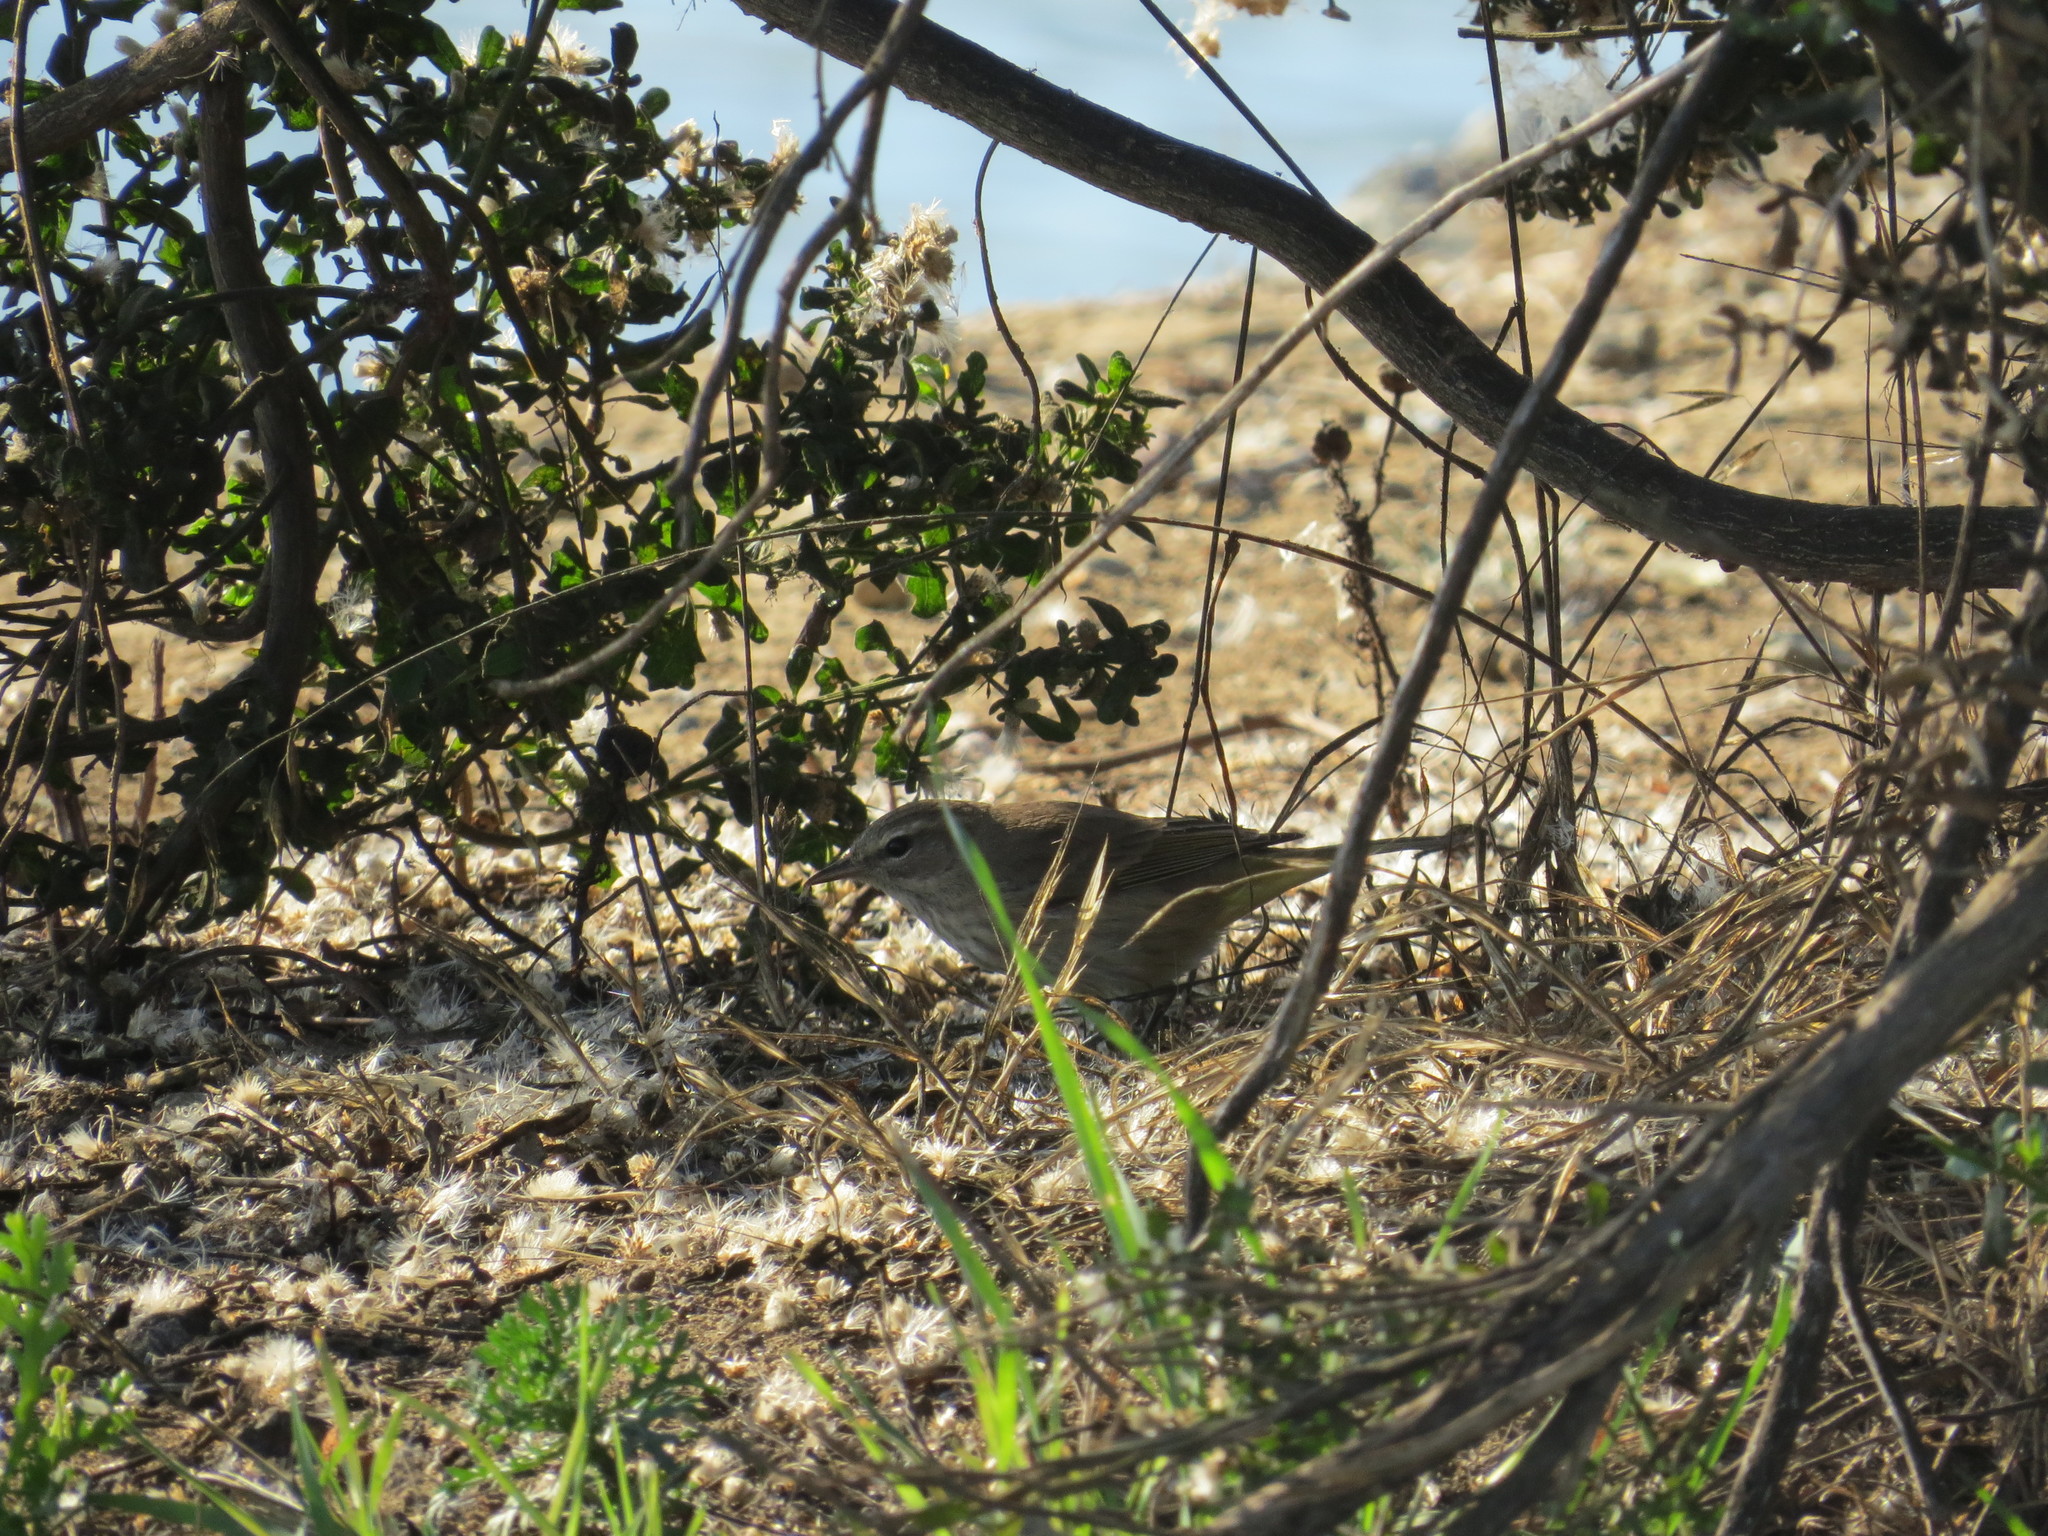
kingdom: Animalia
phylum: Chordata
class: Aves
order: Passeriformes
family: Parulidae
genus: Setophaga
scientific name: Setophaga palmarum
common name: Palm warbler
